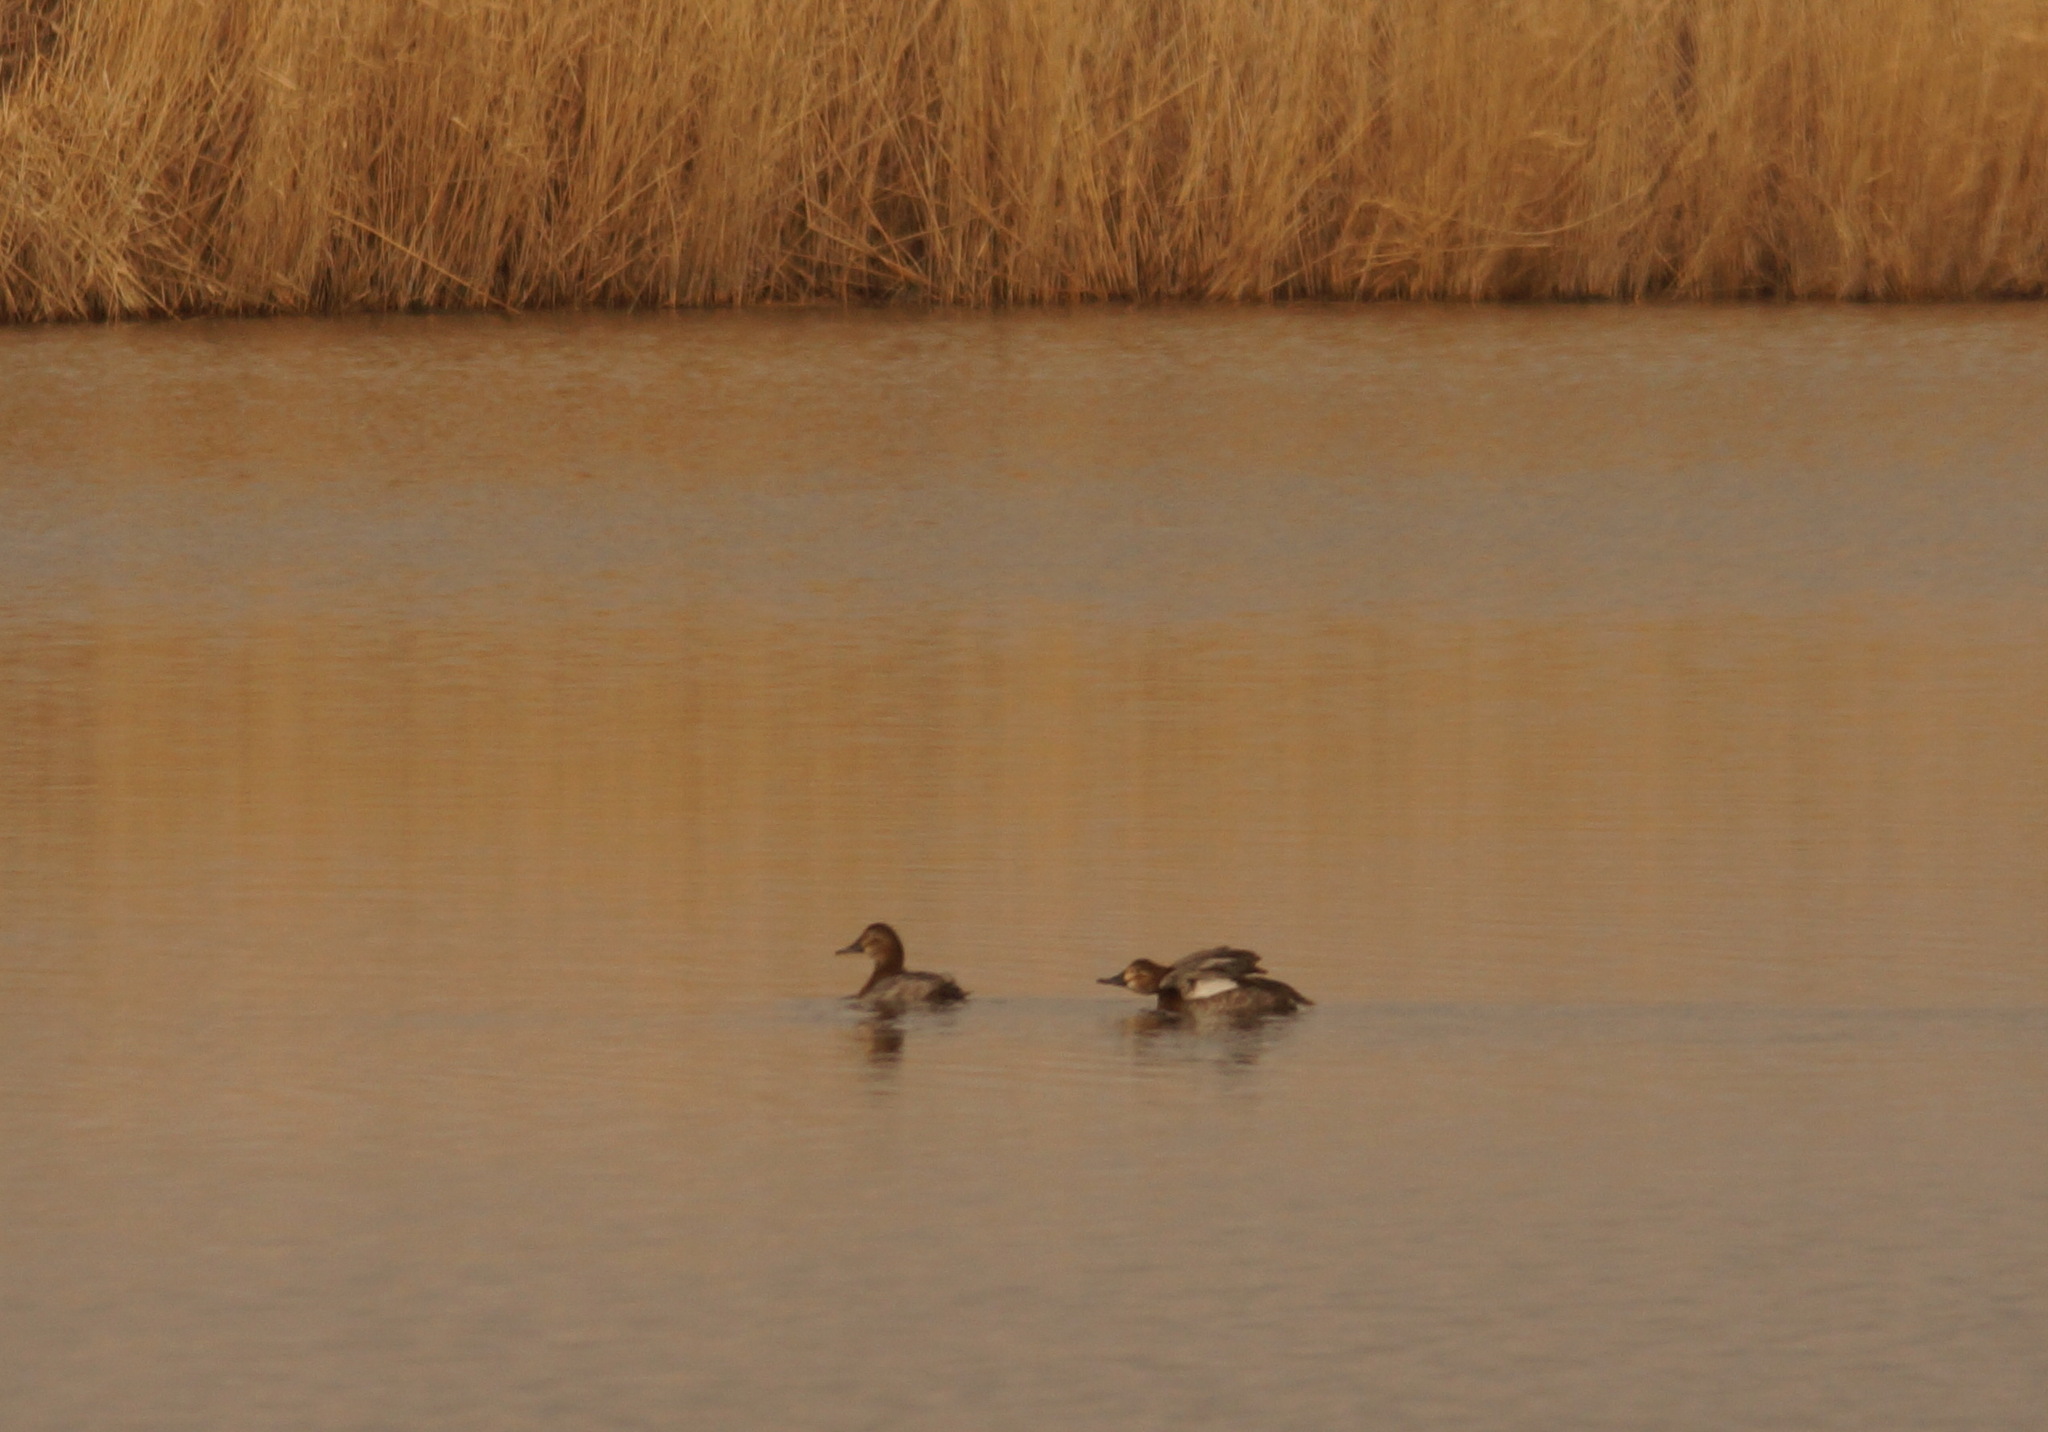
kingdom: Animalia
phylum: Chordata
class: Aves
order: Anseriformes
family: Anatidae
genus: Aythya
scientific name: Aythya ferina
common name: Common pochard
